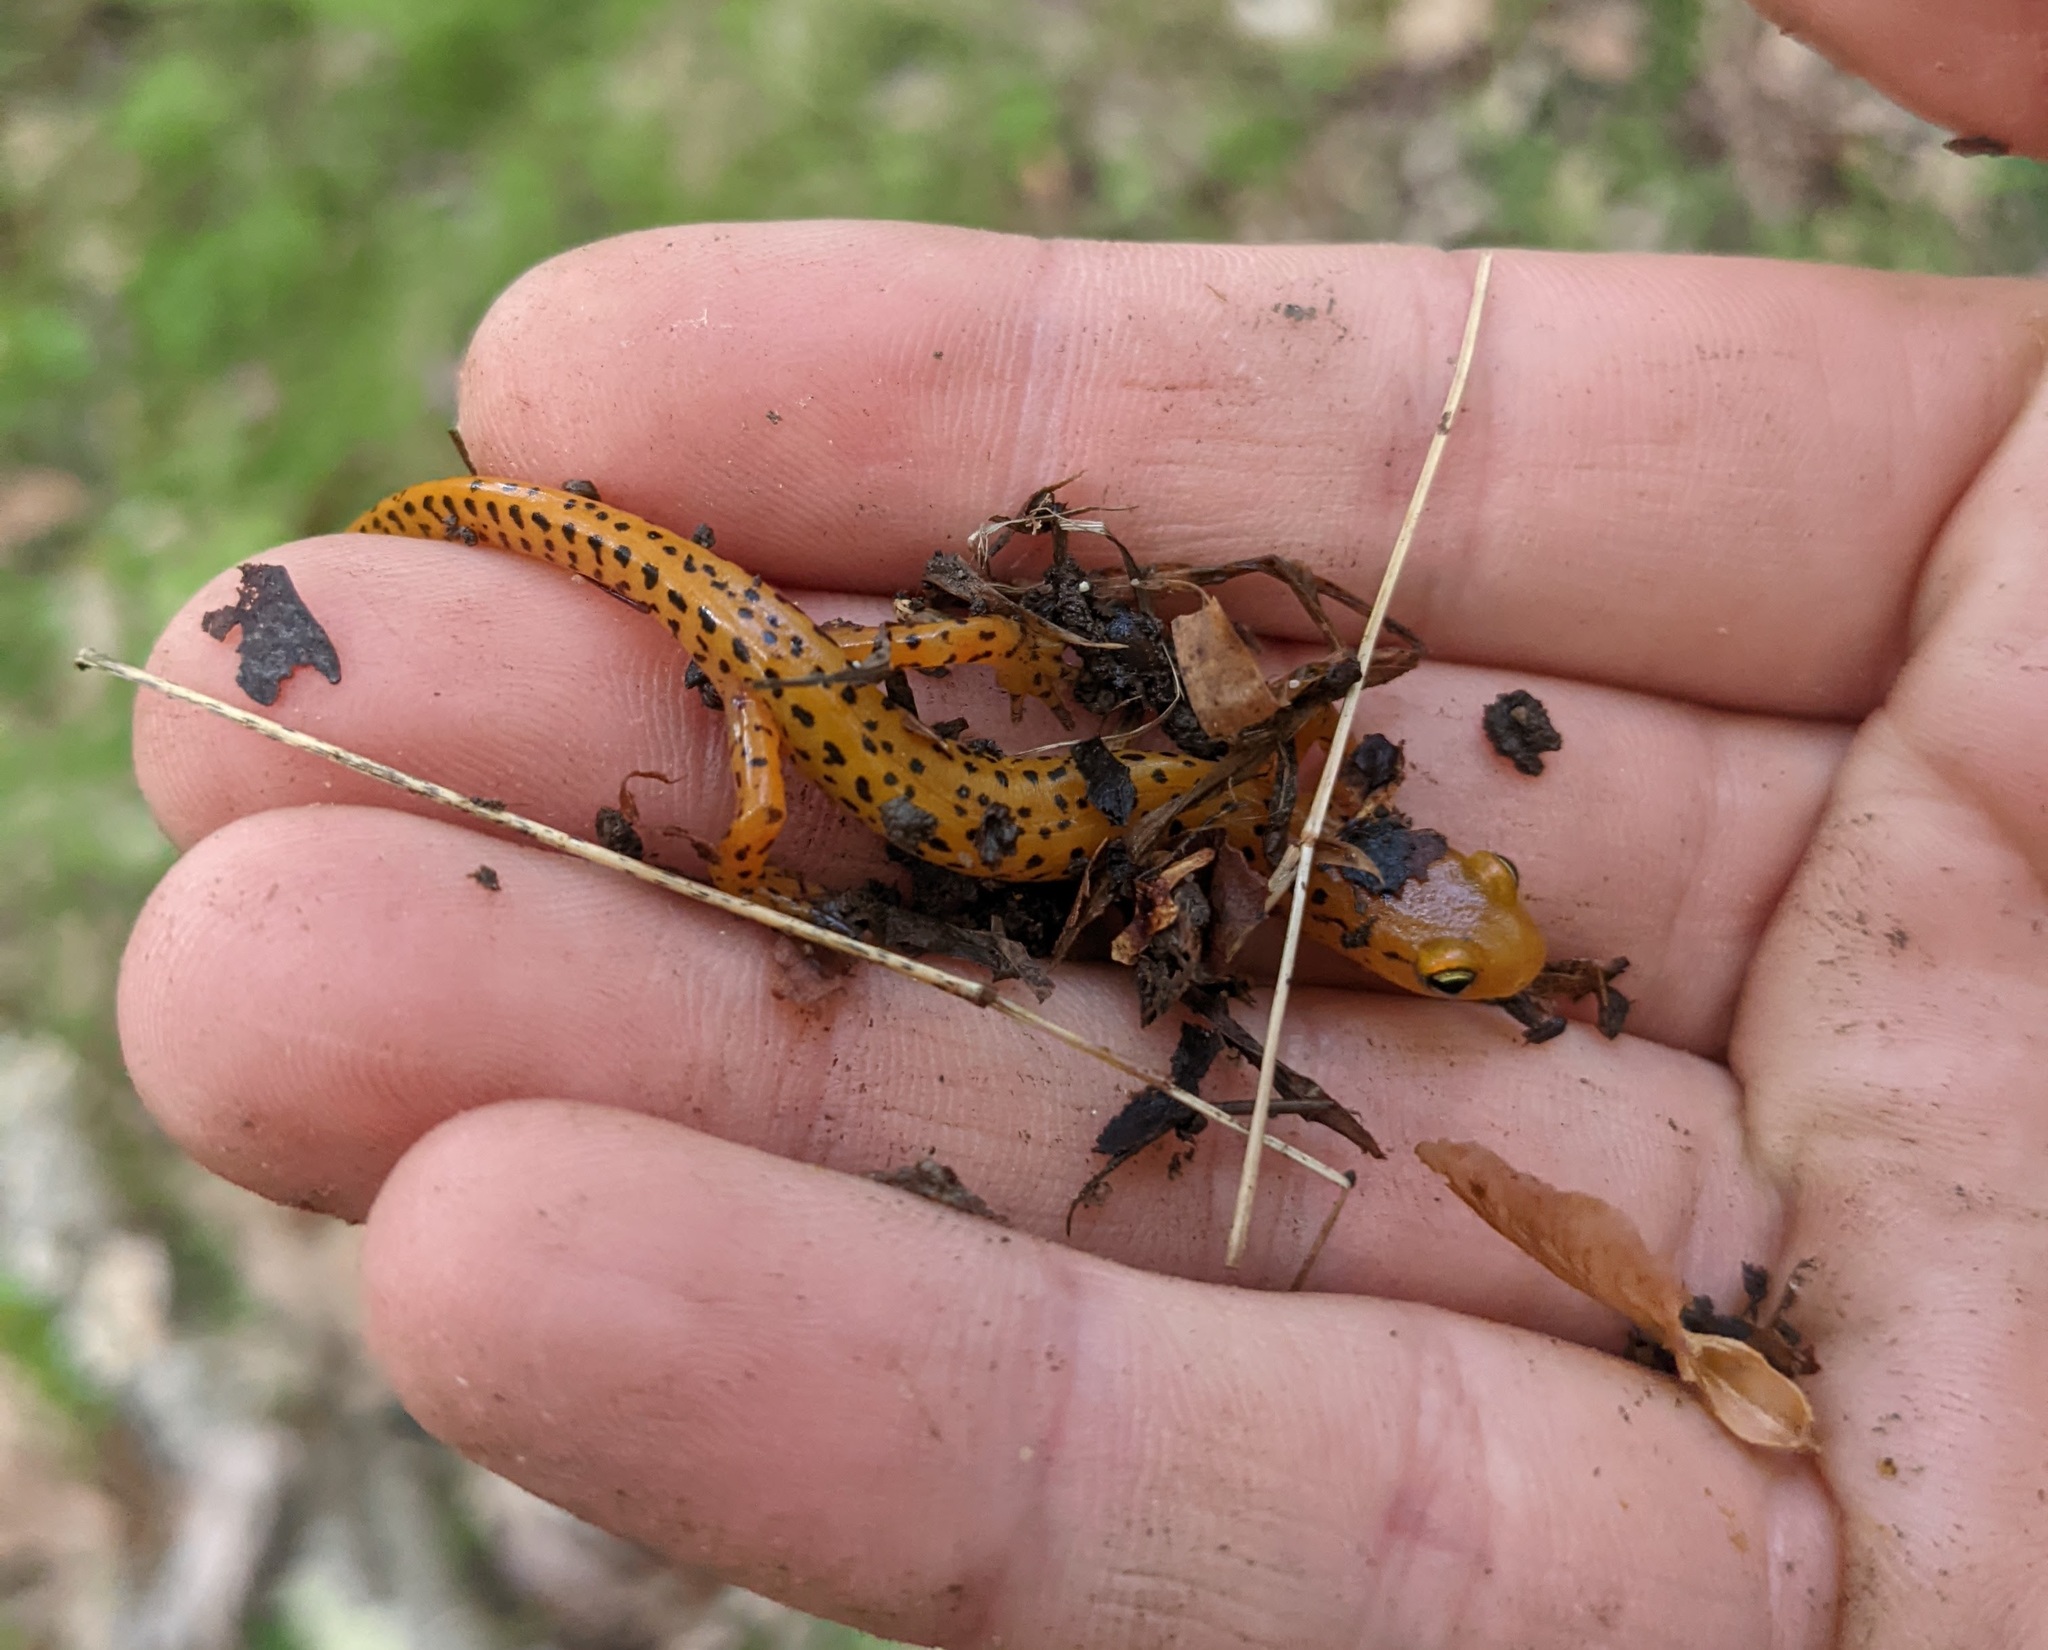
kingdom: Animalia
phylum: Chordata
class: Amphibia
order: Caudata
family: Plethodontidae
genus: Eurycea
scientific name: Eurycea longicauda
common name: Long-tailed salamander
